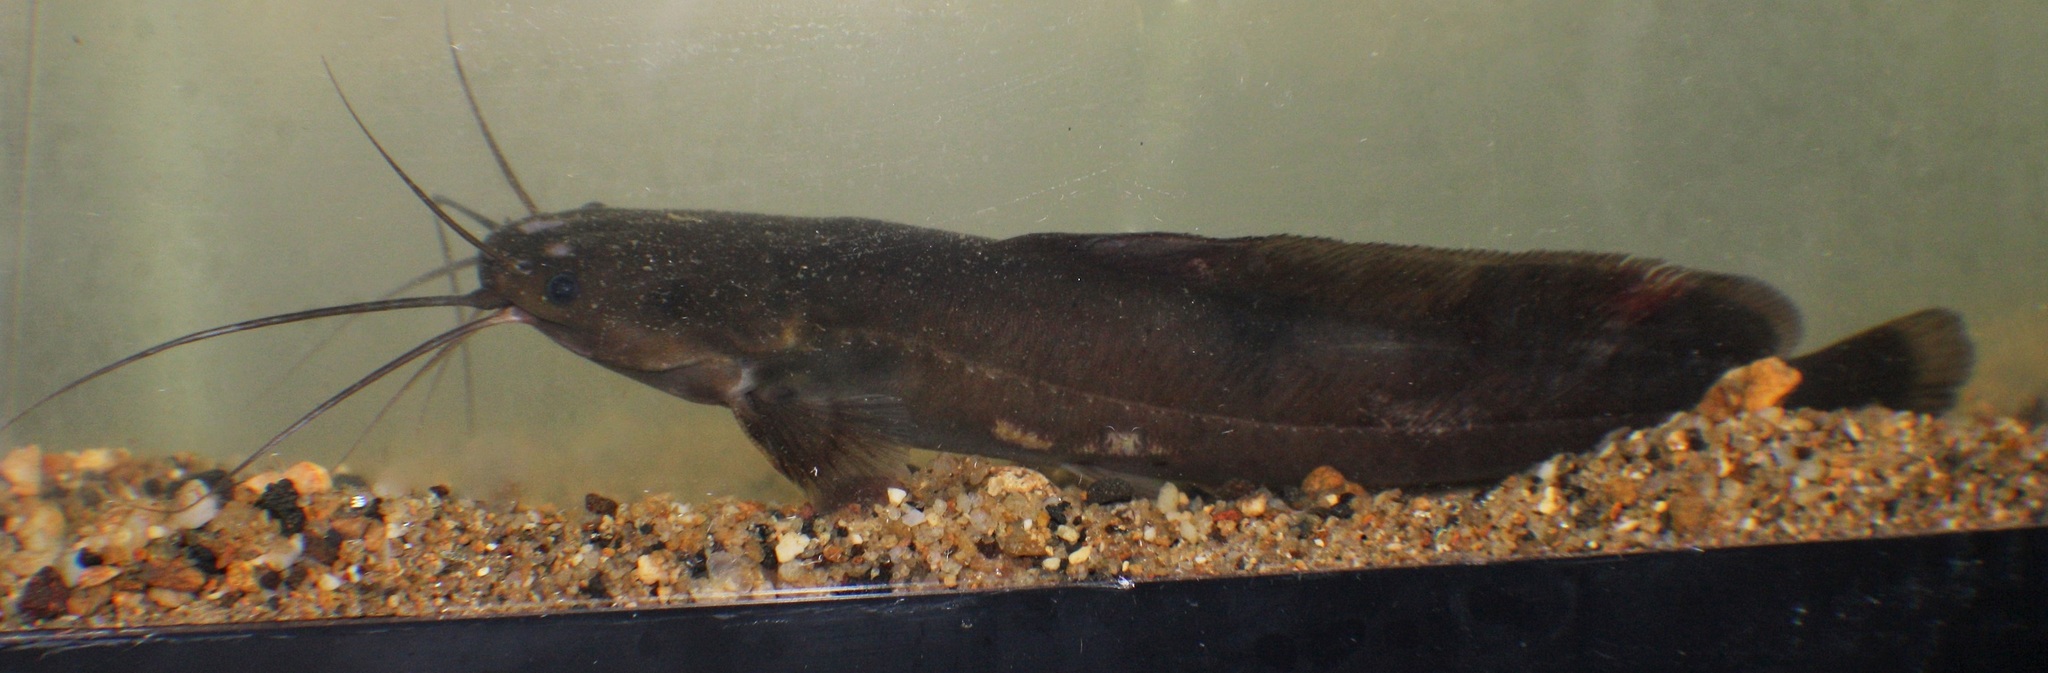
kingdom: Animalia
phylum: Chordata
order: Siluriformes
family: Clariidae
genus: Clarias
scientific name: Clarias maclareni
